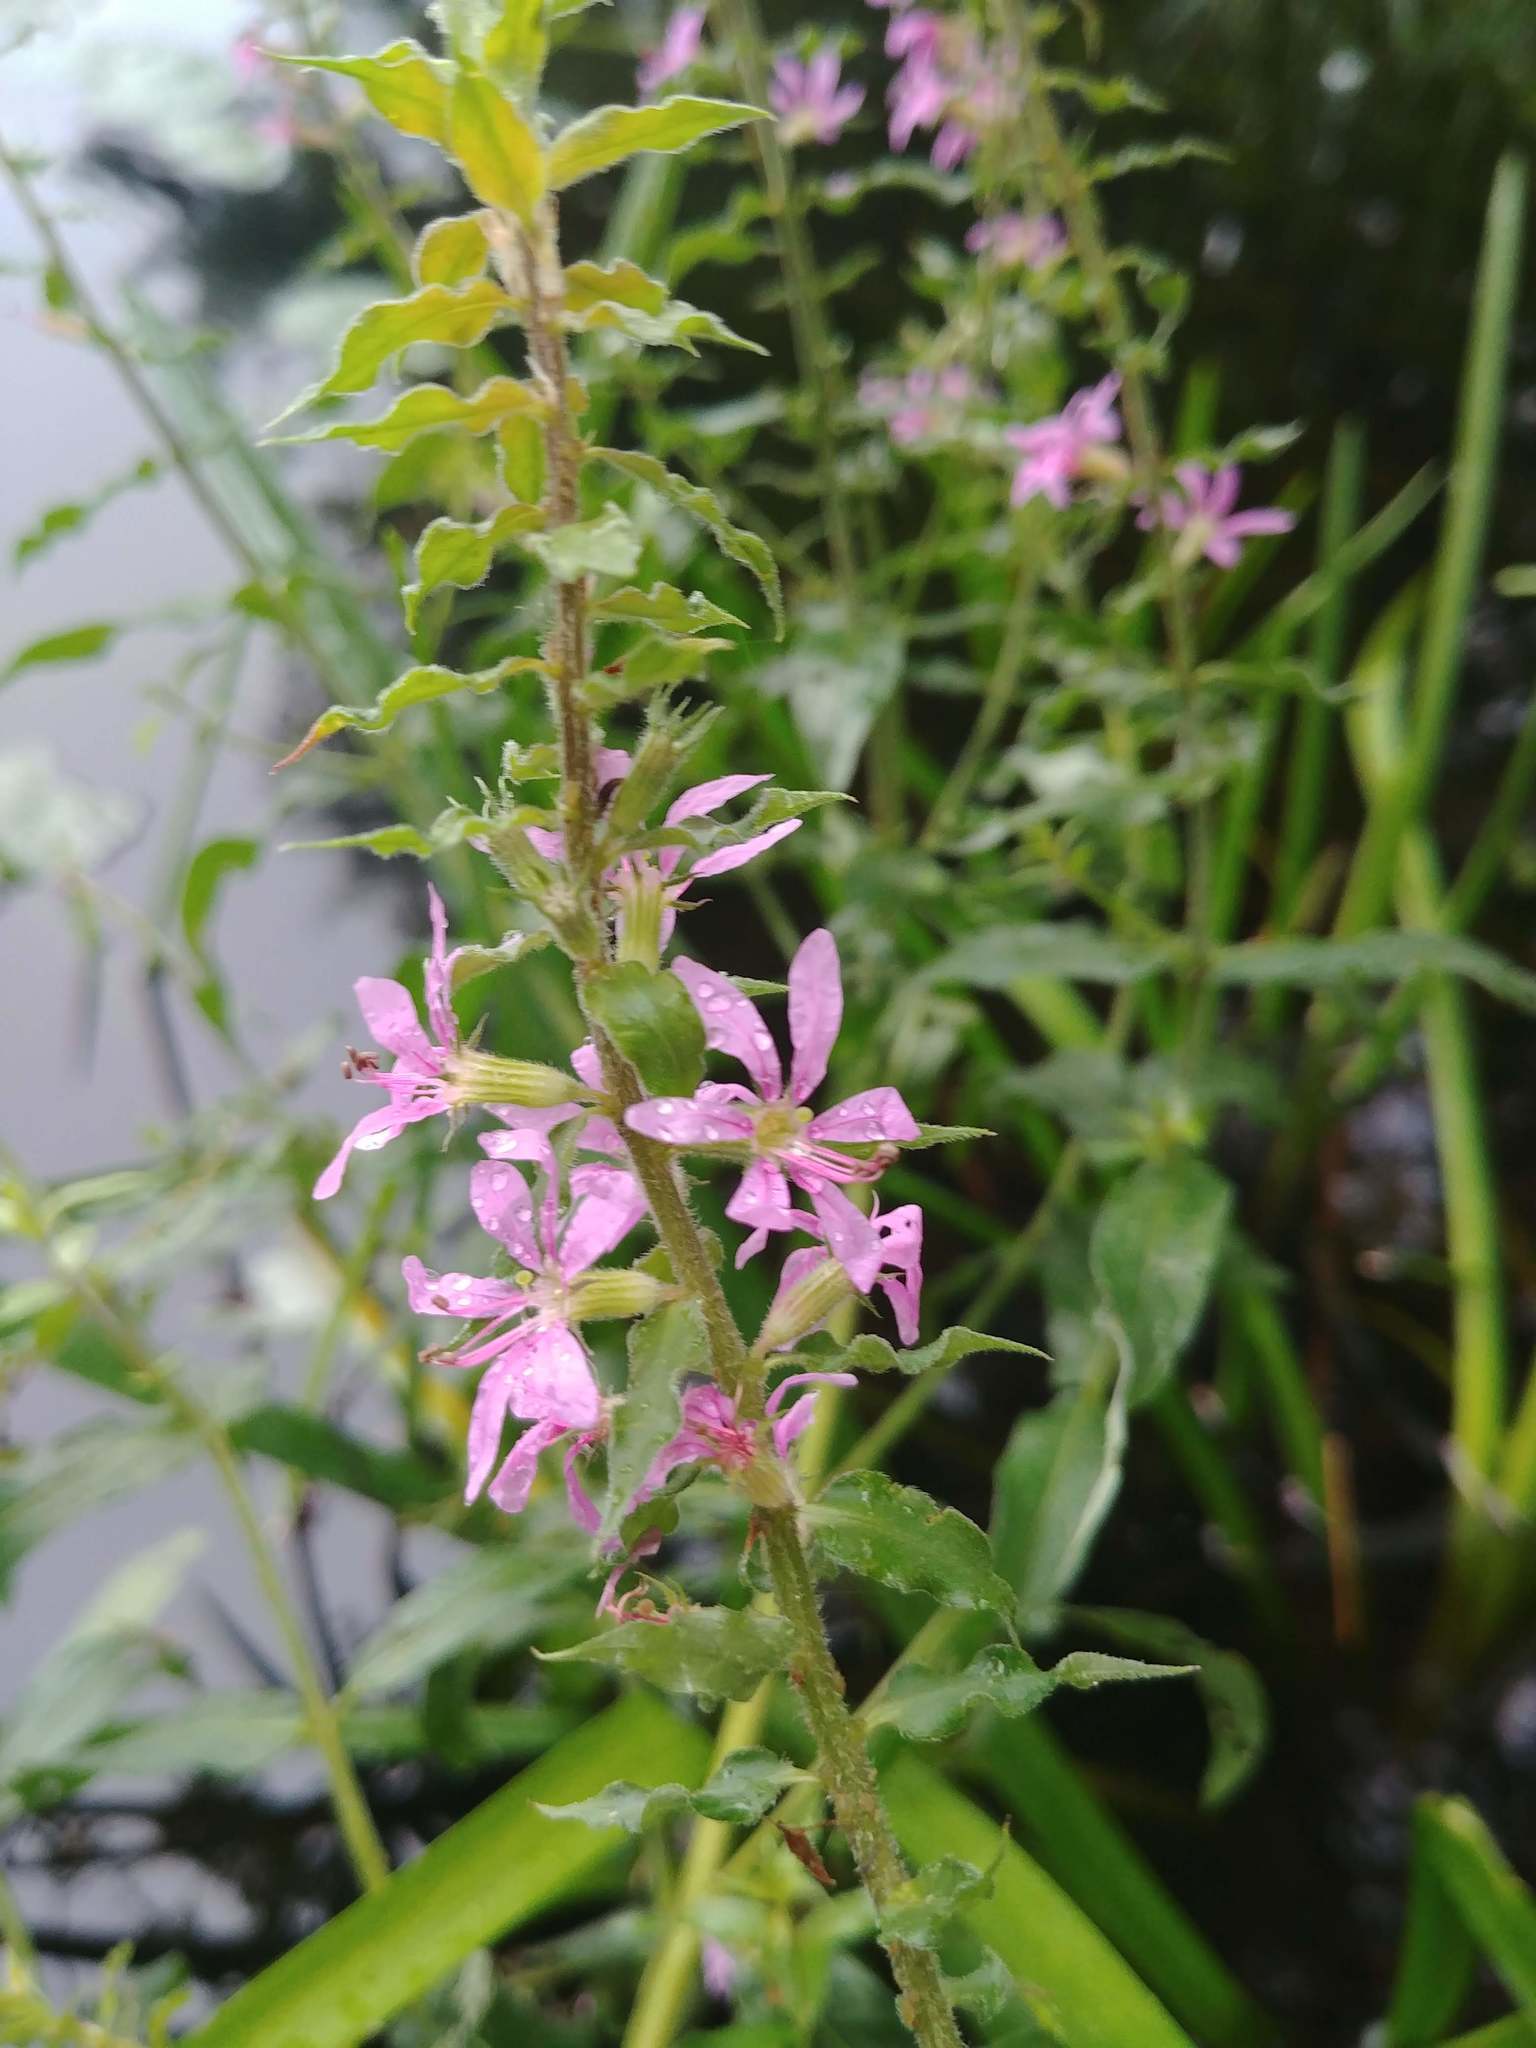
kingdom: Plantae
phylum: Tracheophyta
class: Magnoliopsida
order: Myrtales
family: Lythraceae
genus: Lythrum
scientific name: Lythrum salicaria
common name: Purple loosestrife
